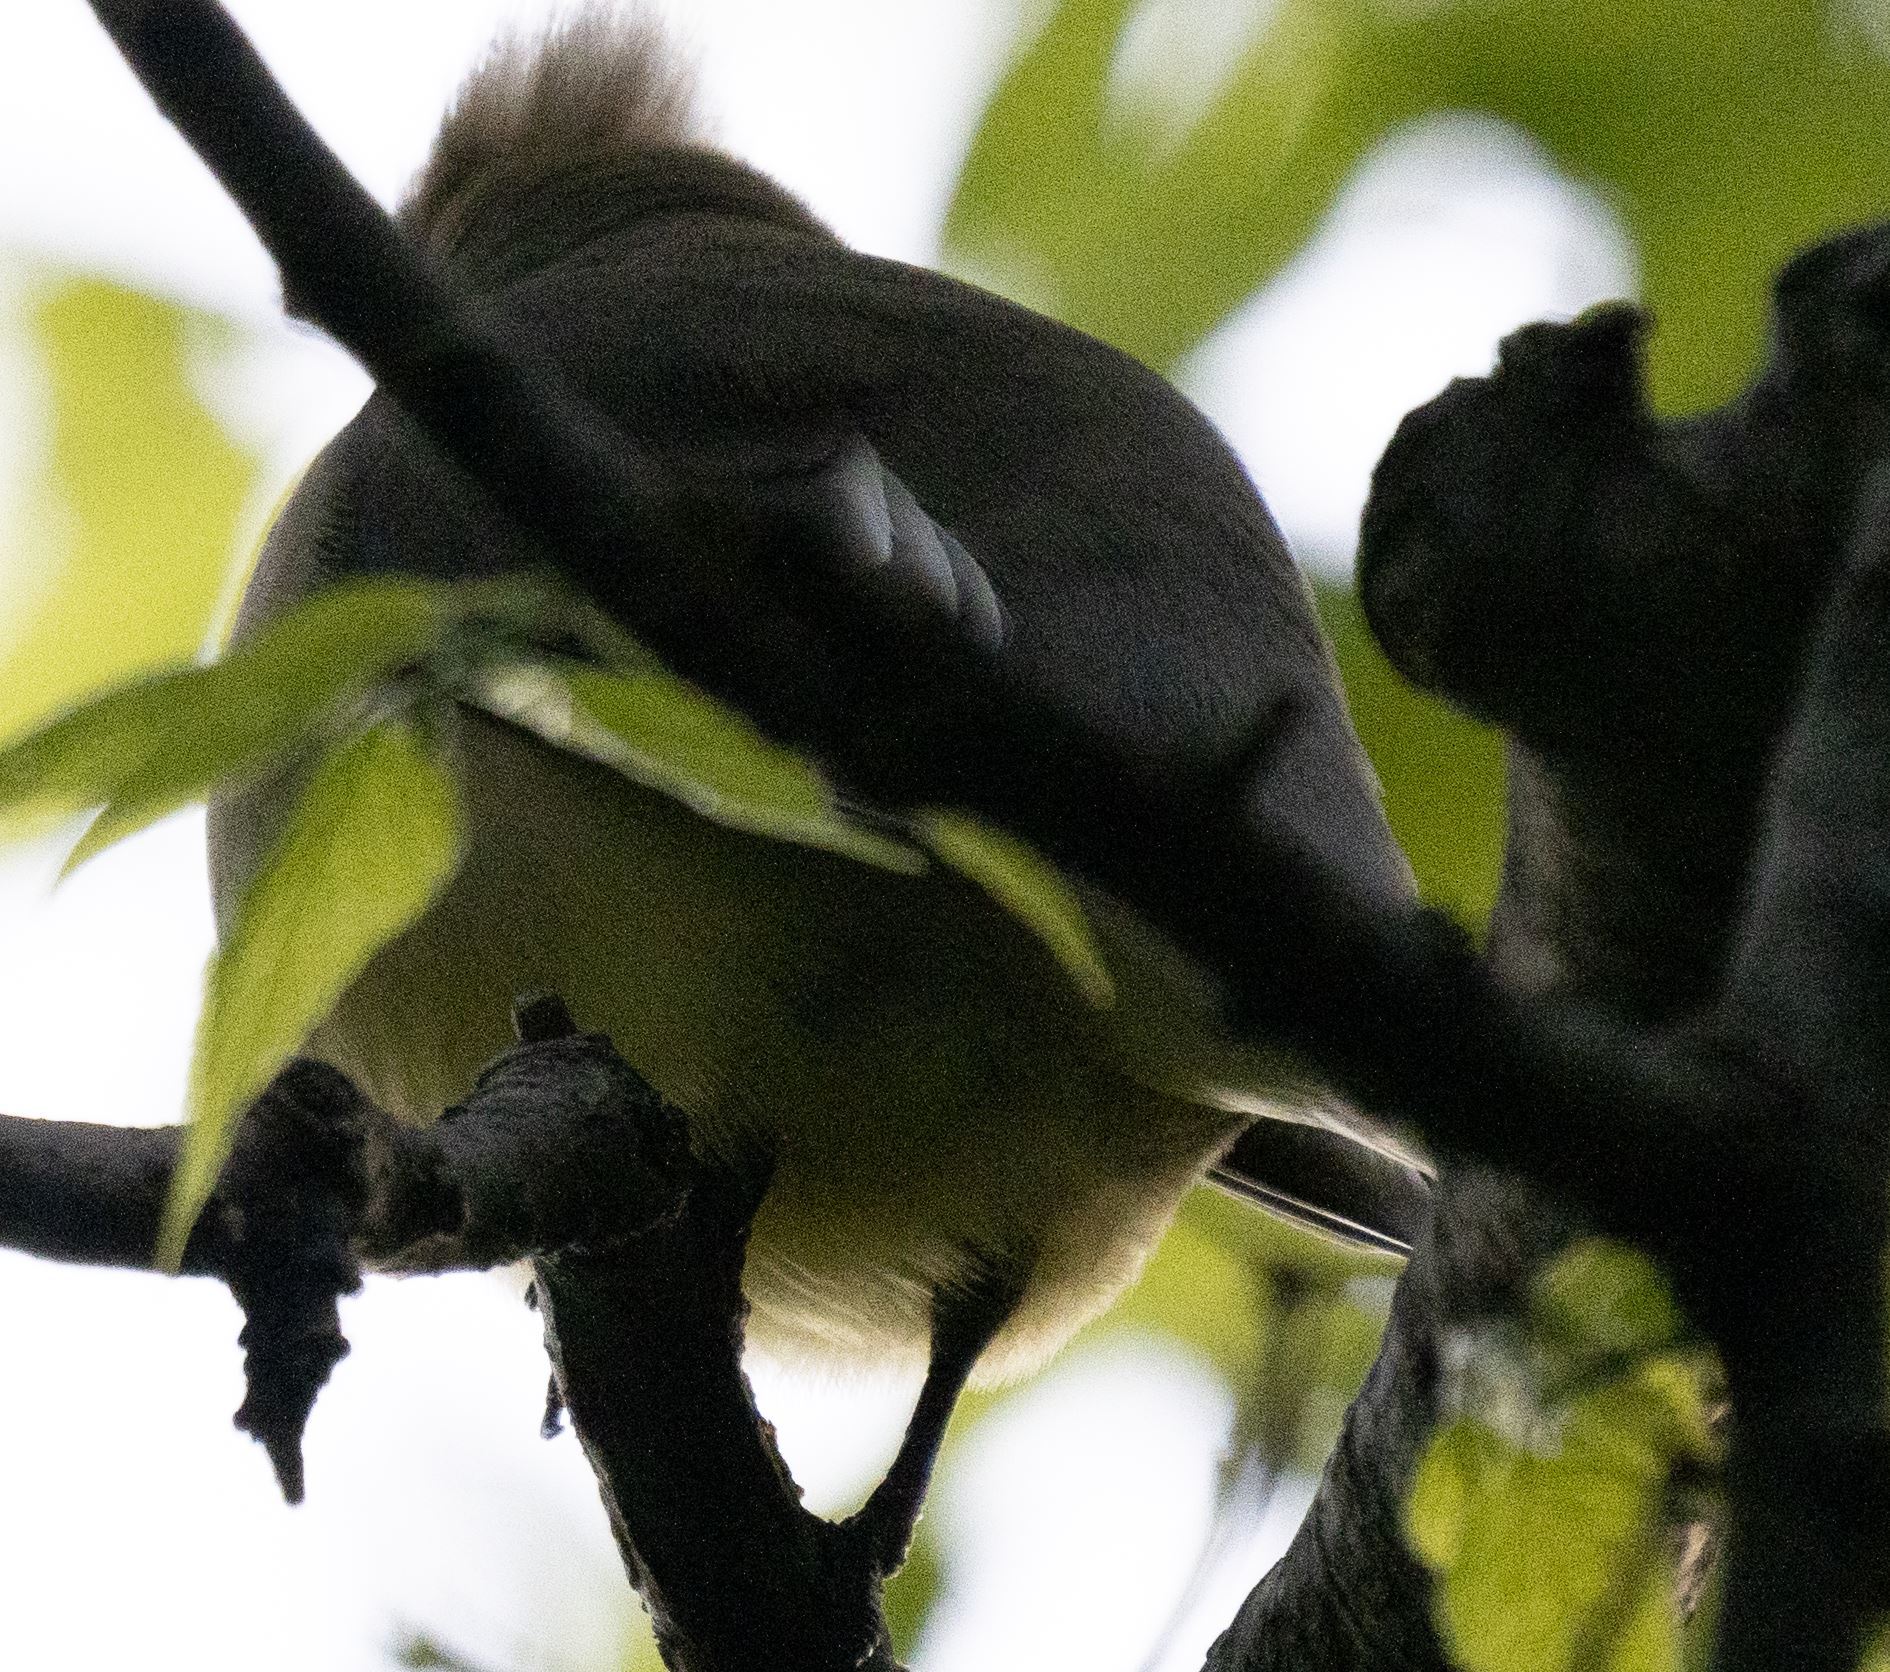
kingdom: Animalia
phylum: Chordata
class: Aves
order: Passeriformes
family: Bombycillidae
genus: Bombycilla
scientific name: Bombycilla cedrorum
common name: Cedar waxwing
